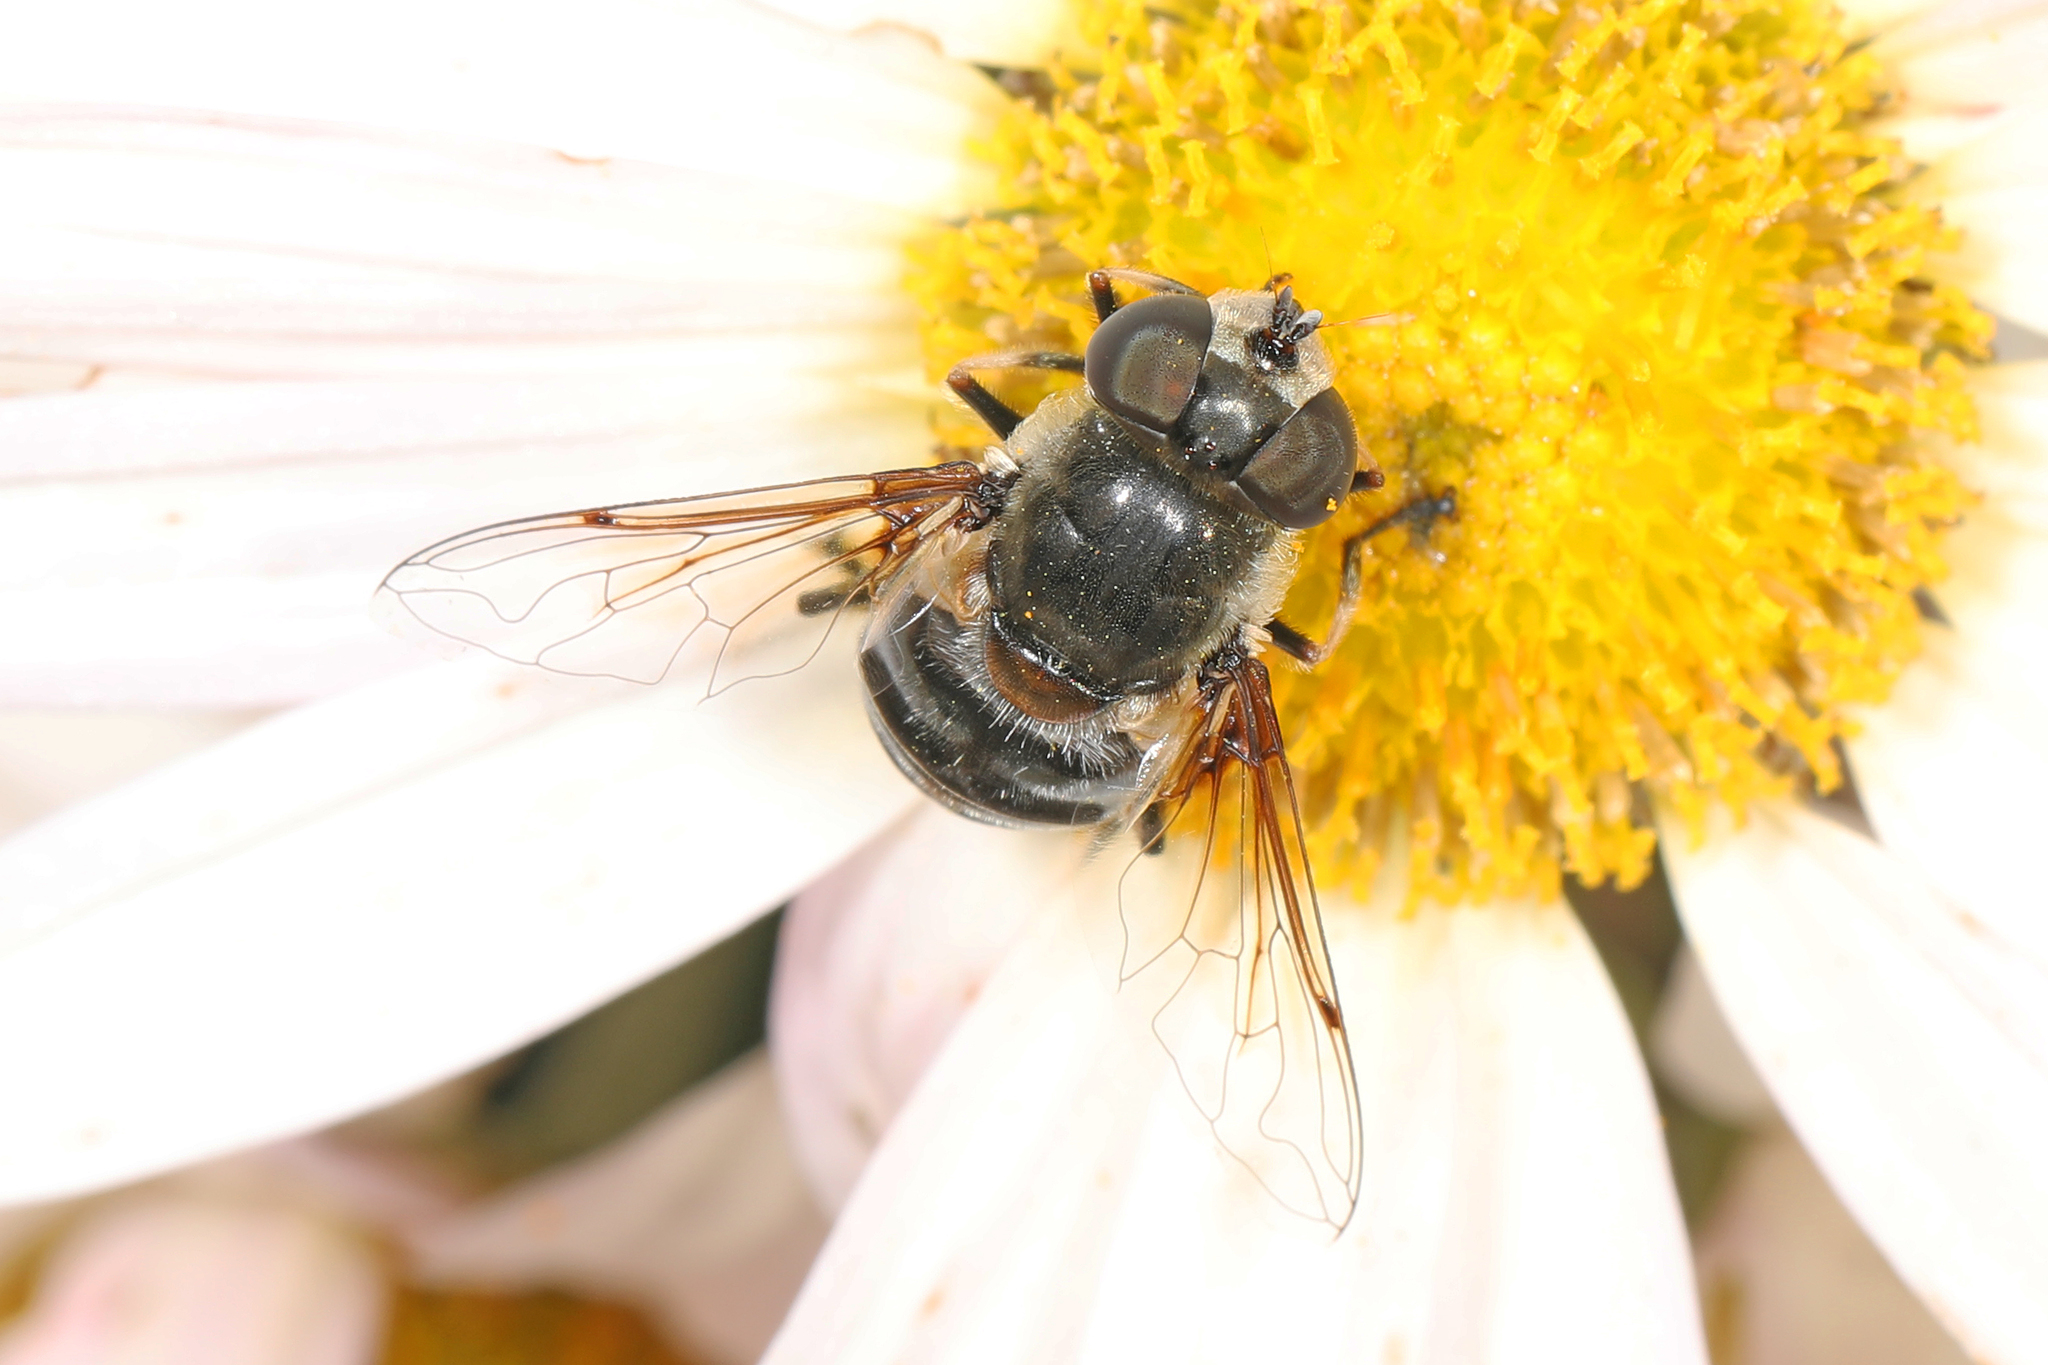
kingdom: Animalia
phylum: Arthropoda
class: Insecta
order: Diptera
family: Syrphidae
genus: Eristalis
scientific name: Eristalis dimidiata
